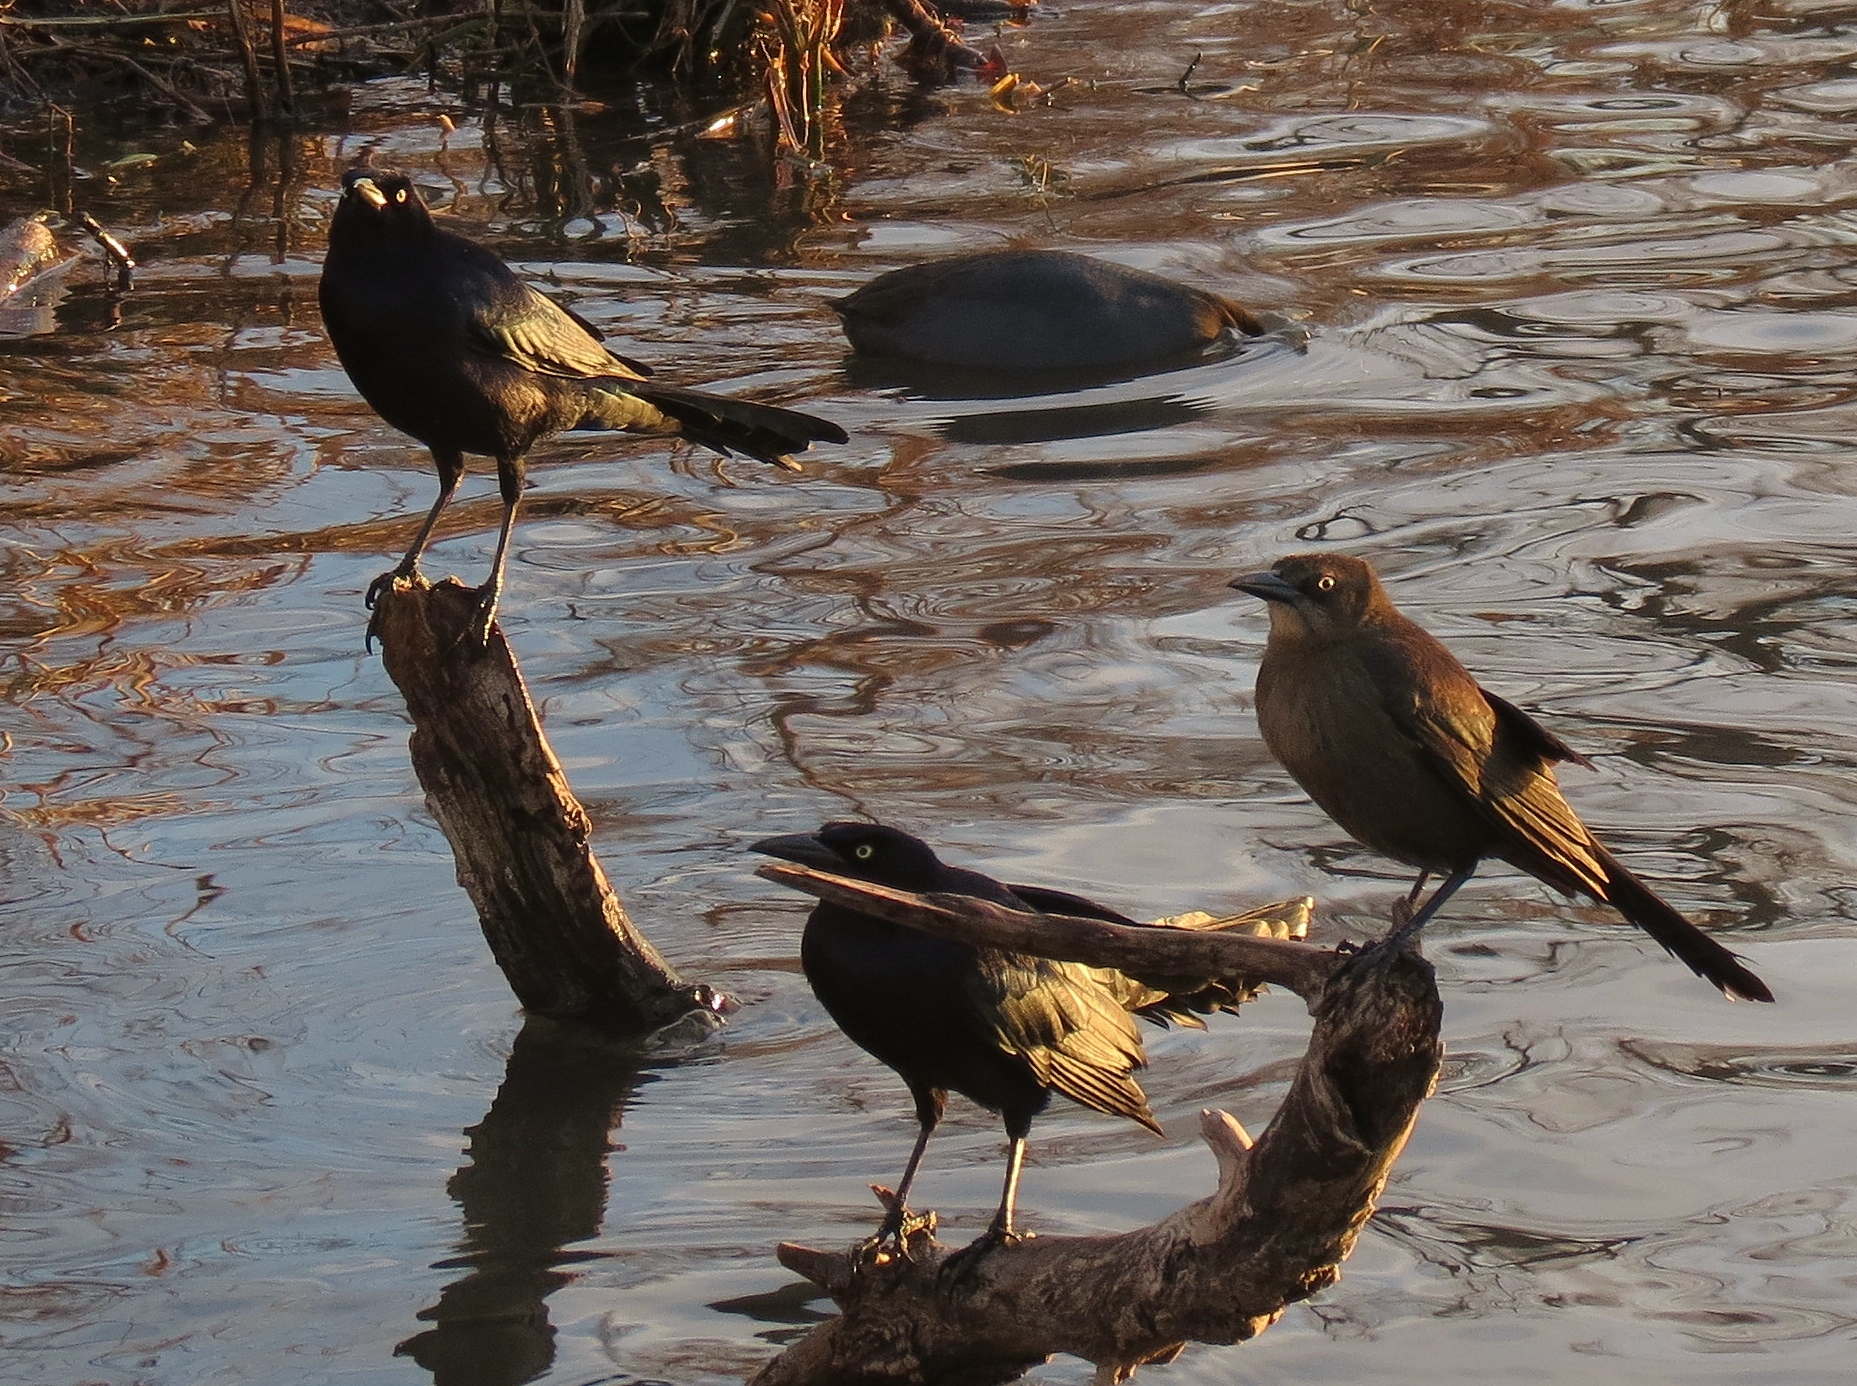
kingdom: Animalia
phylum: Chordata
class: Aves
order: Passeriformes
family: Icteridae
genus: Quiscalus
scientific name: Quiscalus mexicanus
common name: Great-tailed grackle
